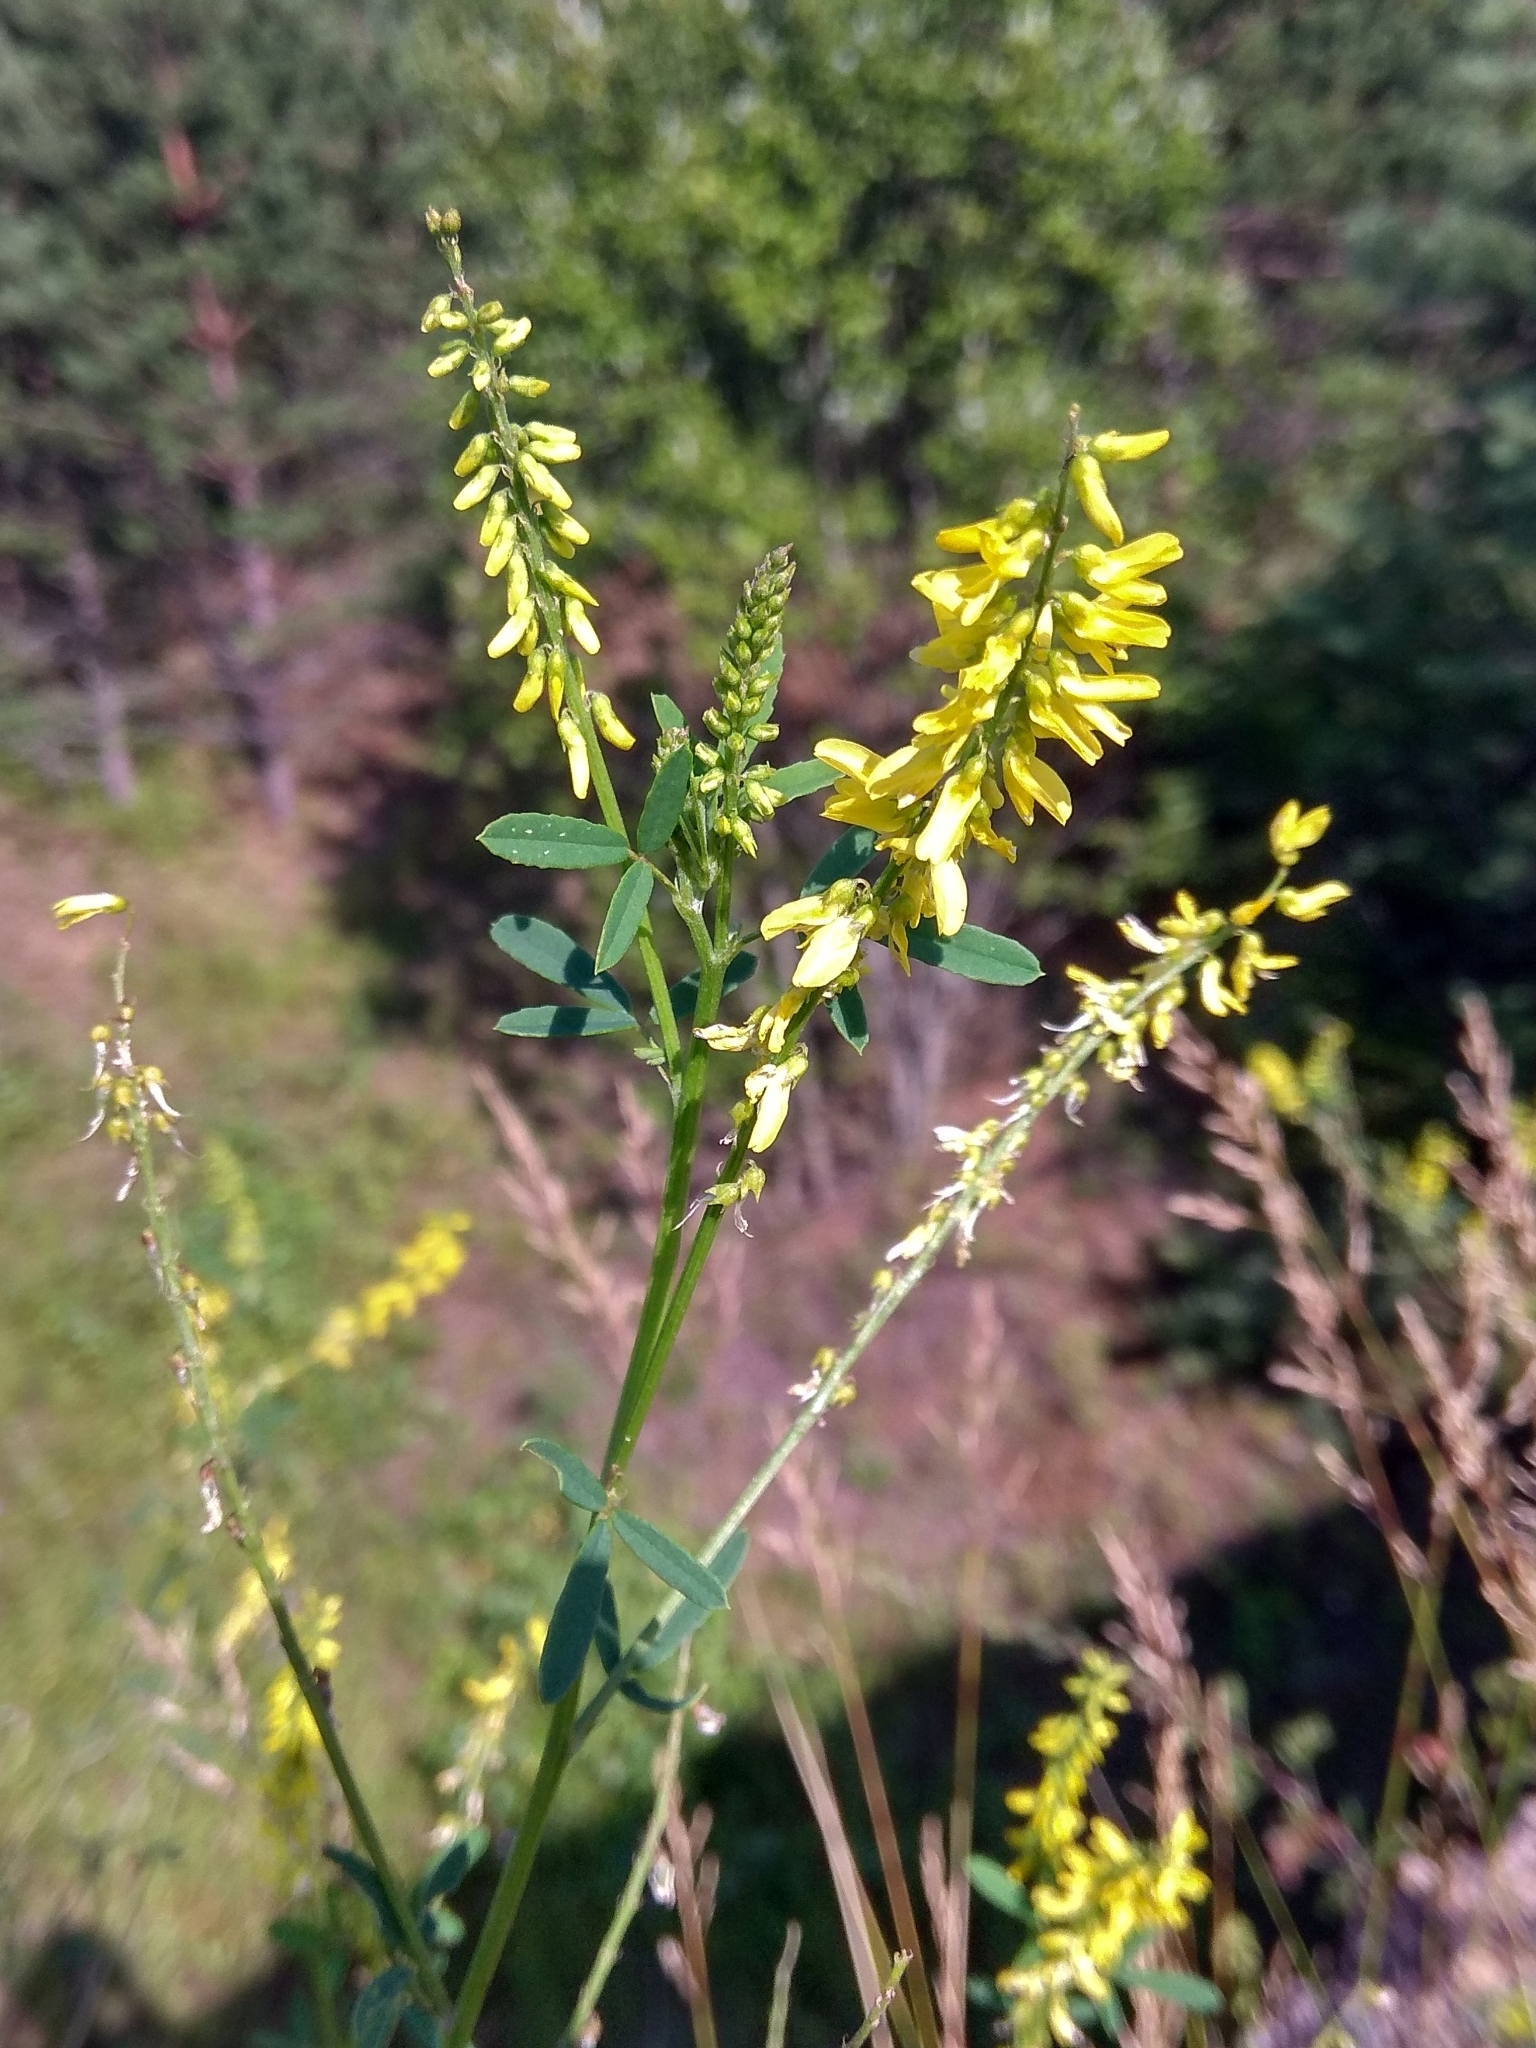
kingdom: Plantae
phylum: Tracheophyta
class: Magnoliopsida
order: Fabales
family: Fabaceae
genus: Melilotus
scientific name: Melilotus officinalis
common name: Sweetclover
